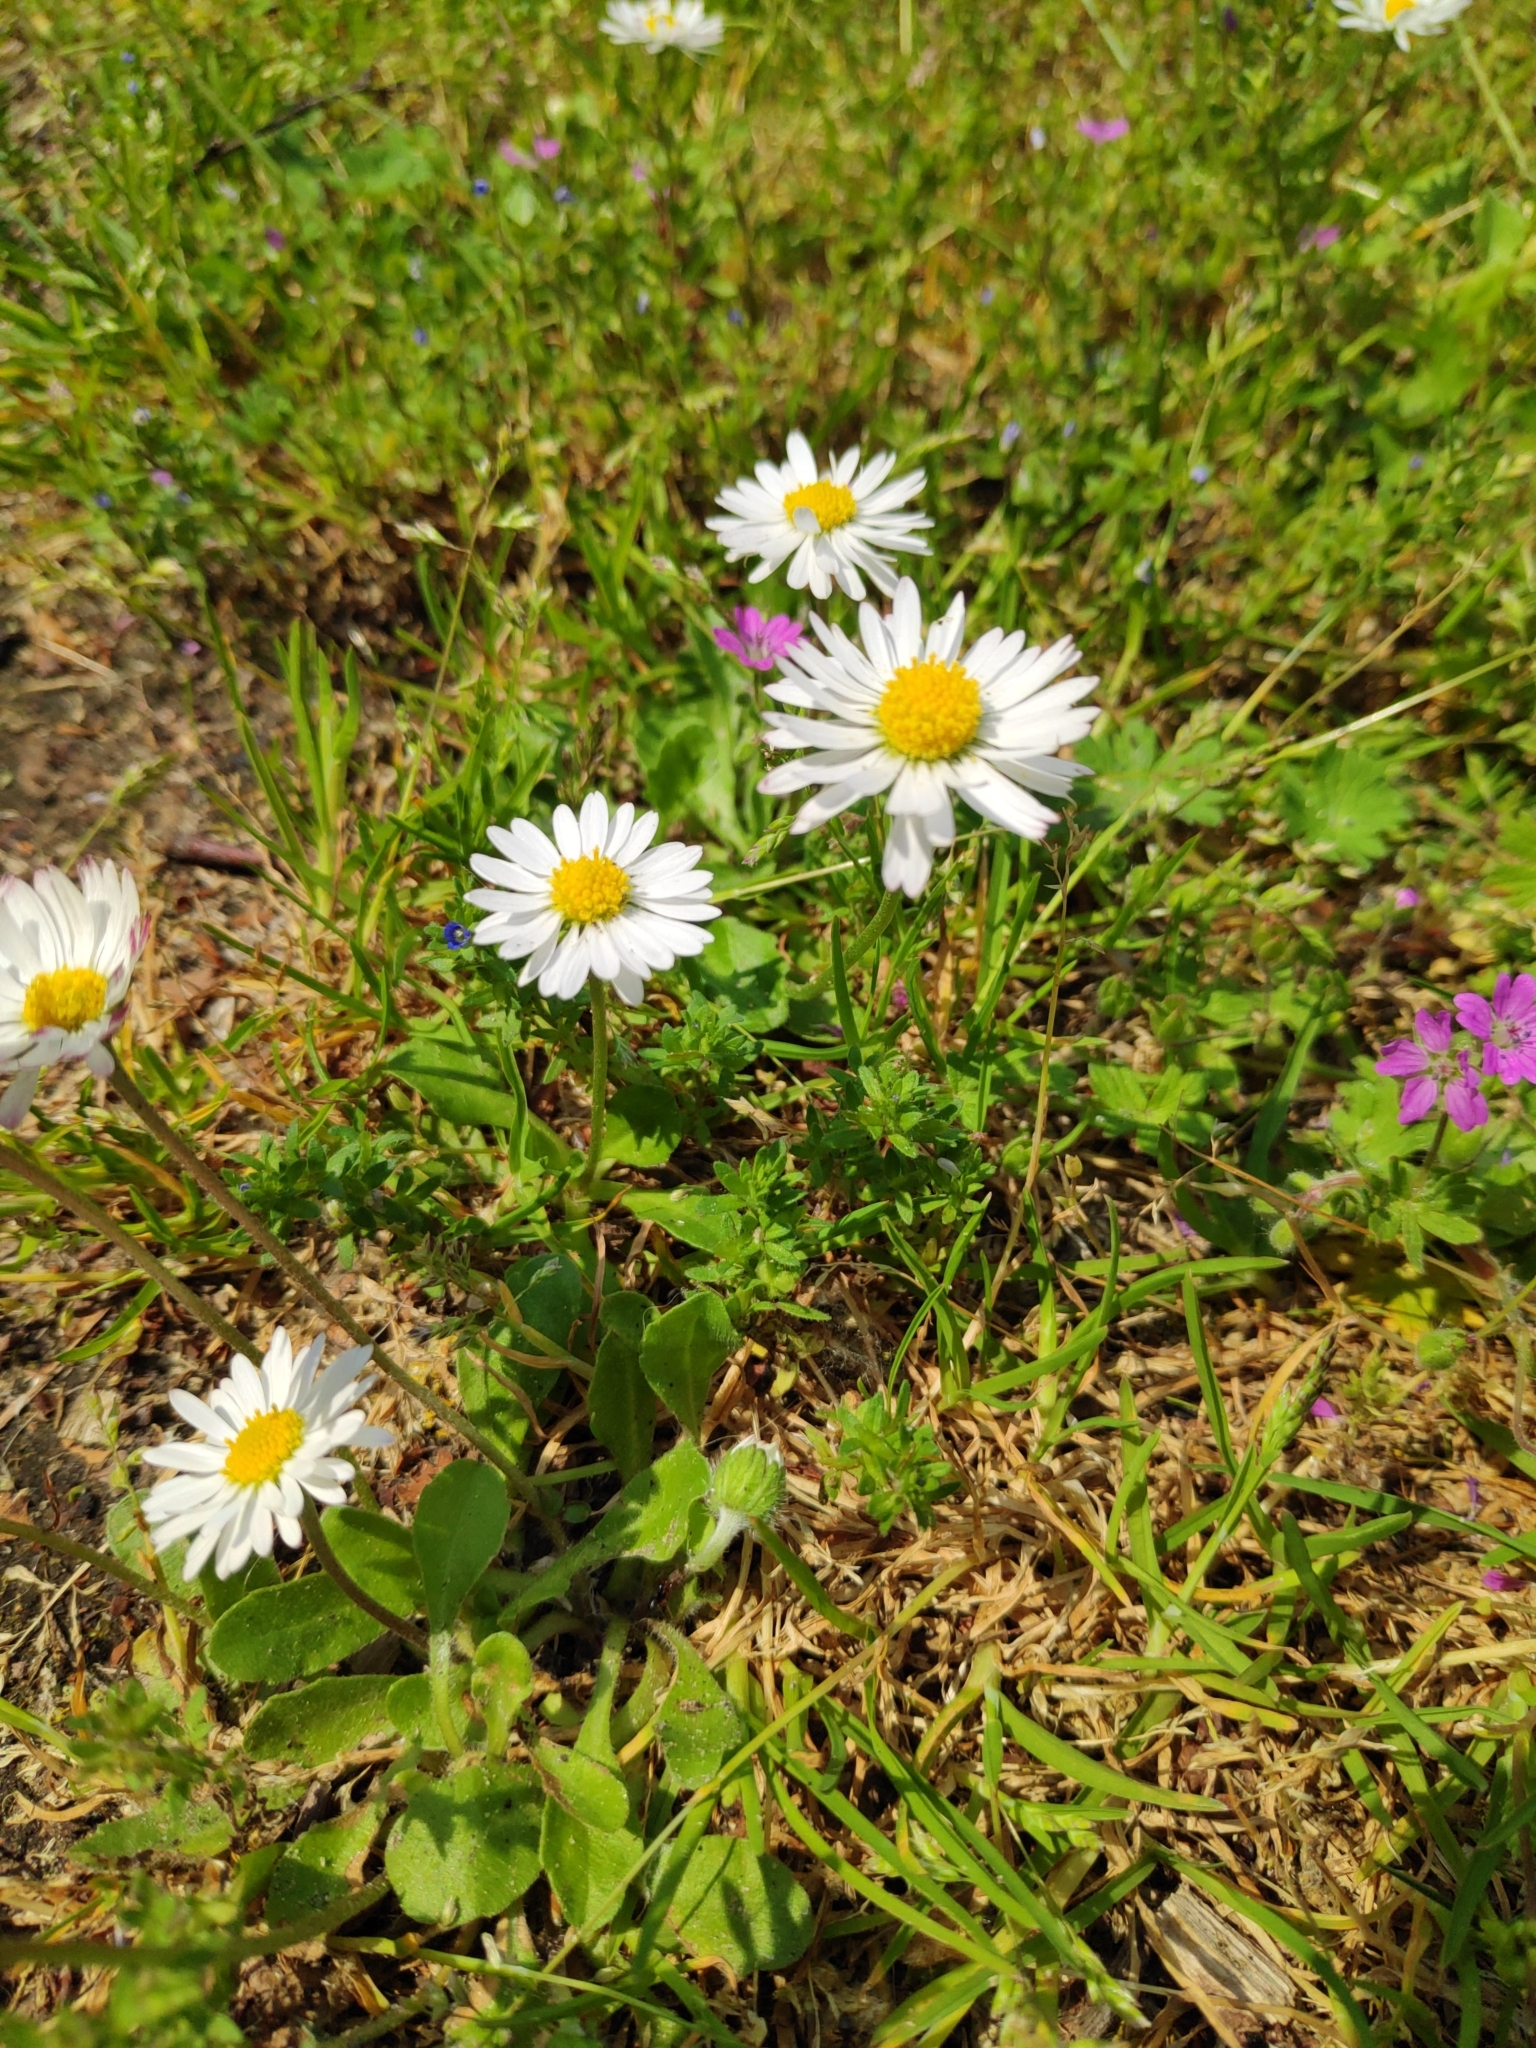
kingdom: Plantae
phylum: Tracheophyta
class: Magnoliopsida
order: Asterales
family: Asteraceae
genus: Bellis
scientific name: Bellis perennis
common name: Lawndaisy
